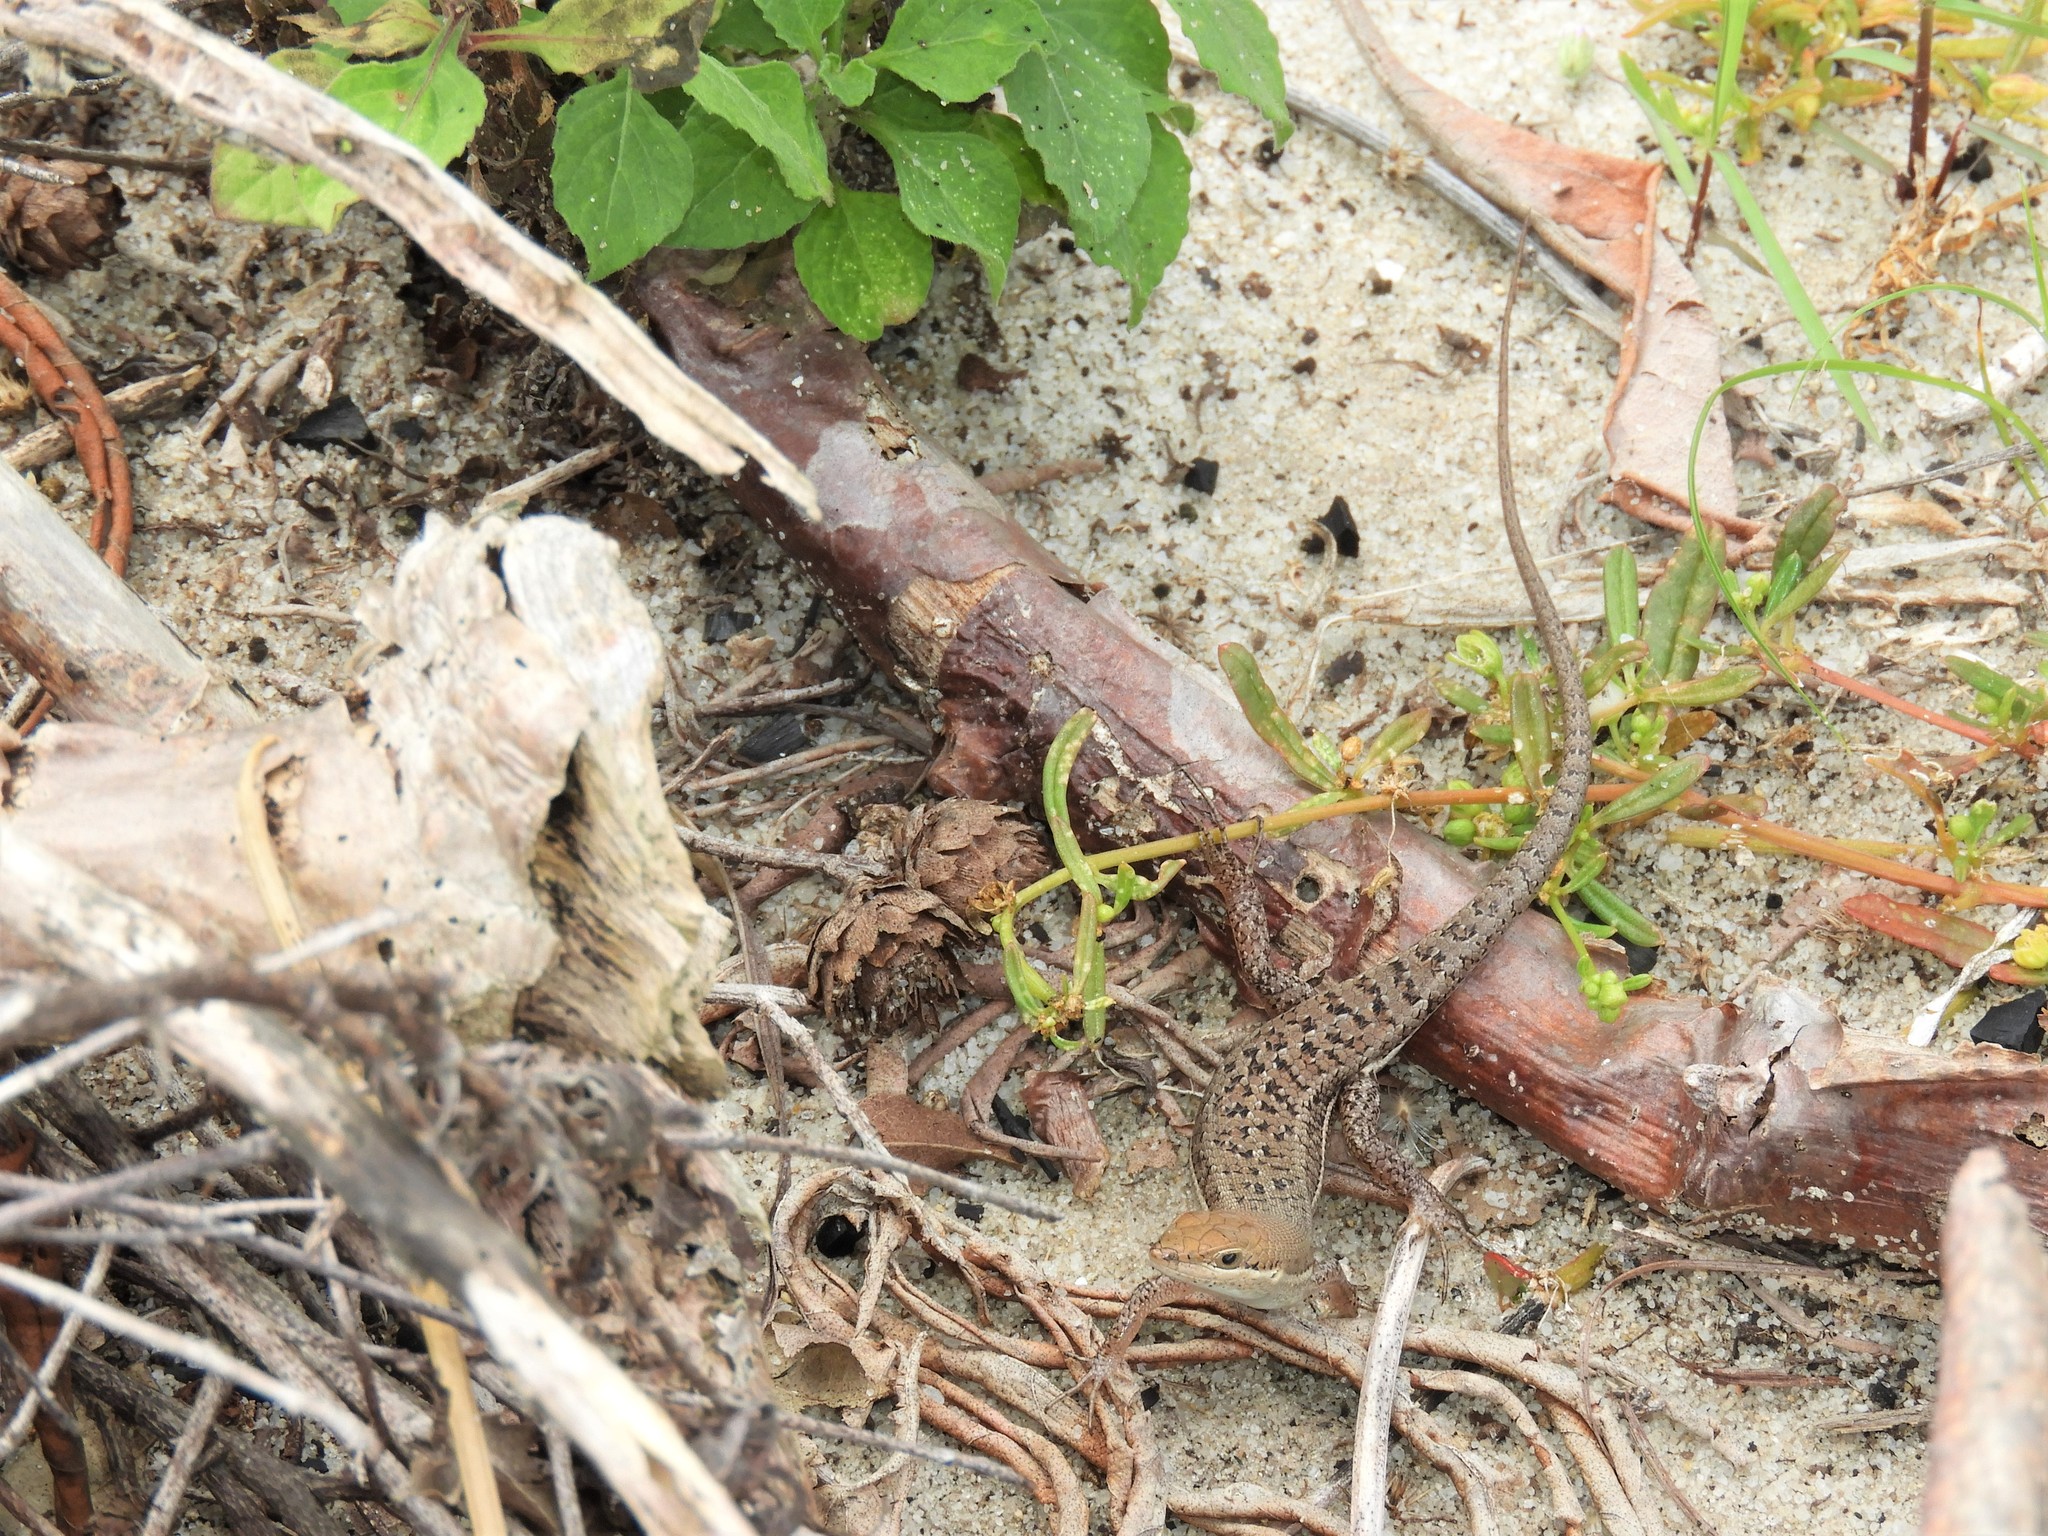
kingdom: Animalia
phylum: Chordata
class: Squamata
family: Scincidae
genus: Trachylepis
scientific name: Trachylepis varia
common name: Eastern variable skink
